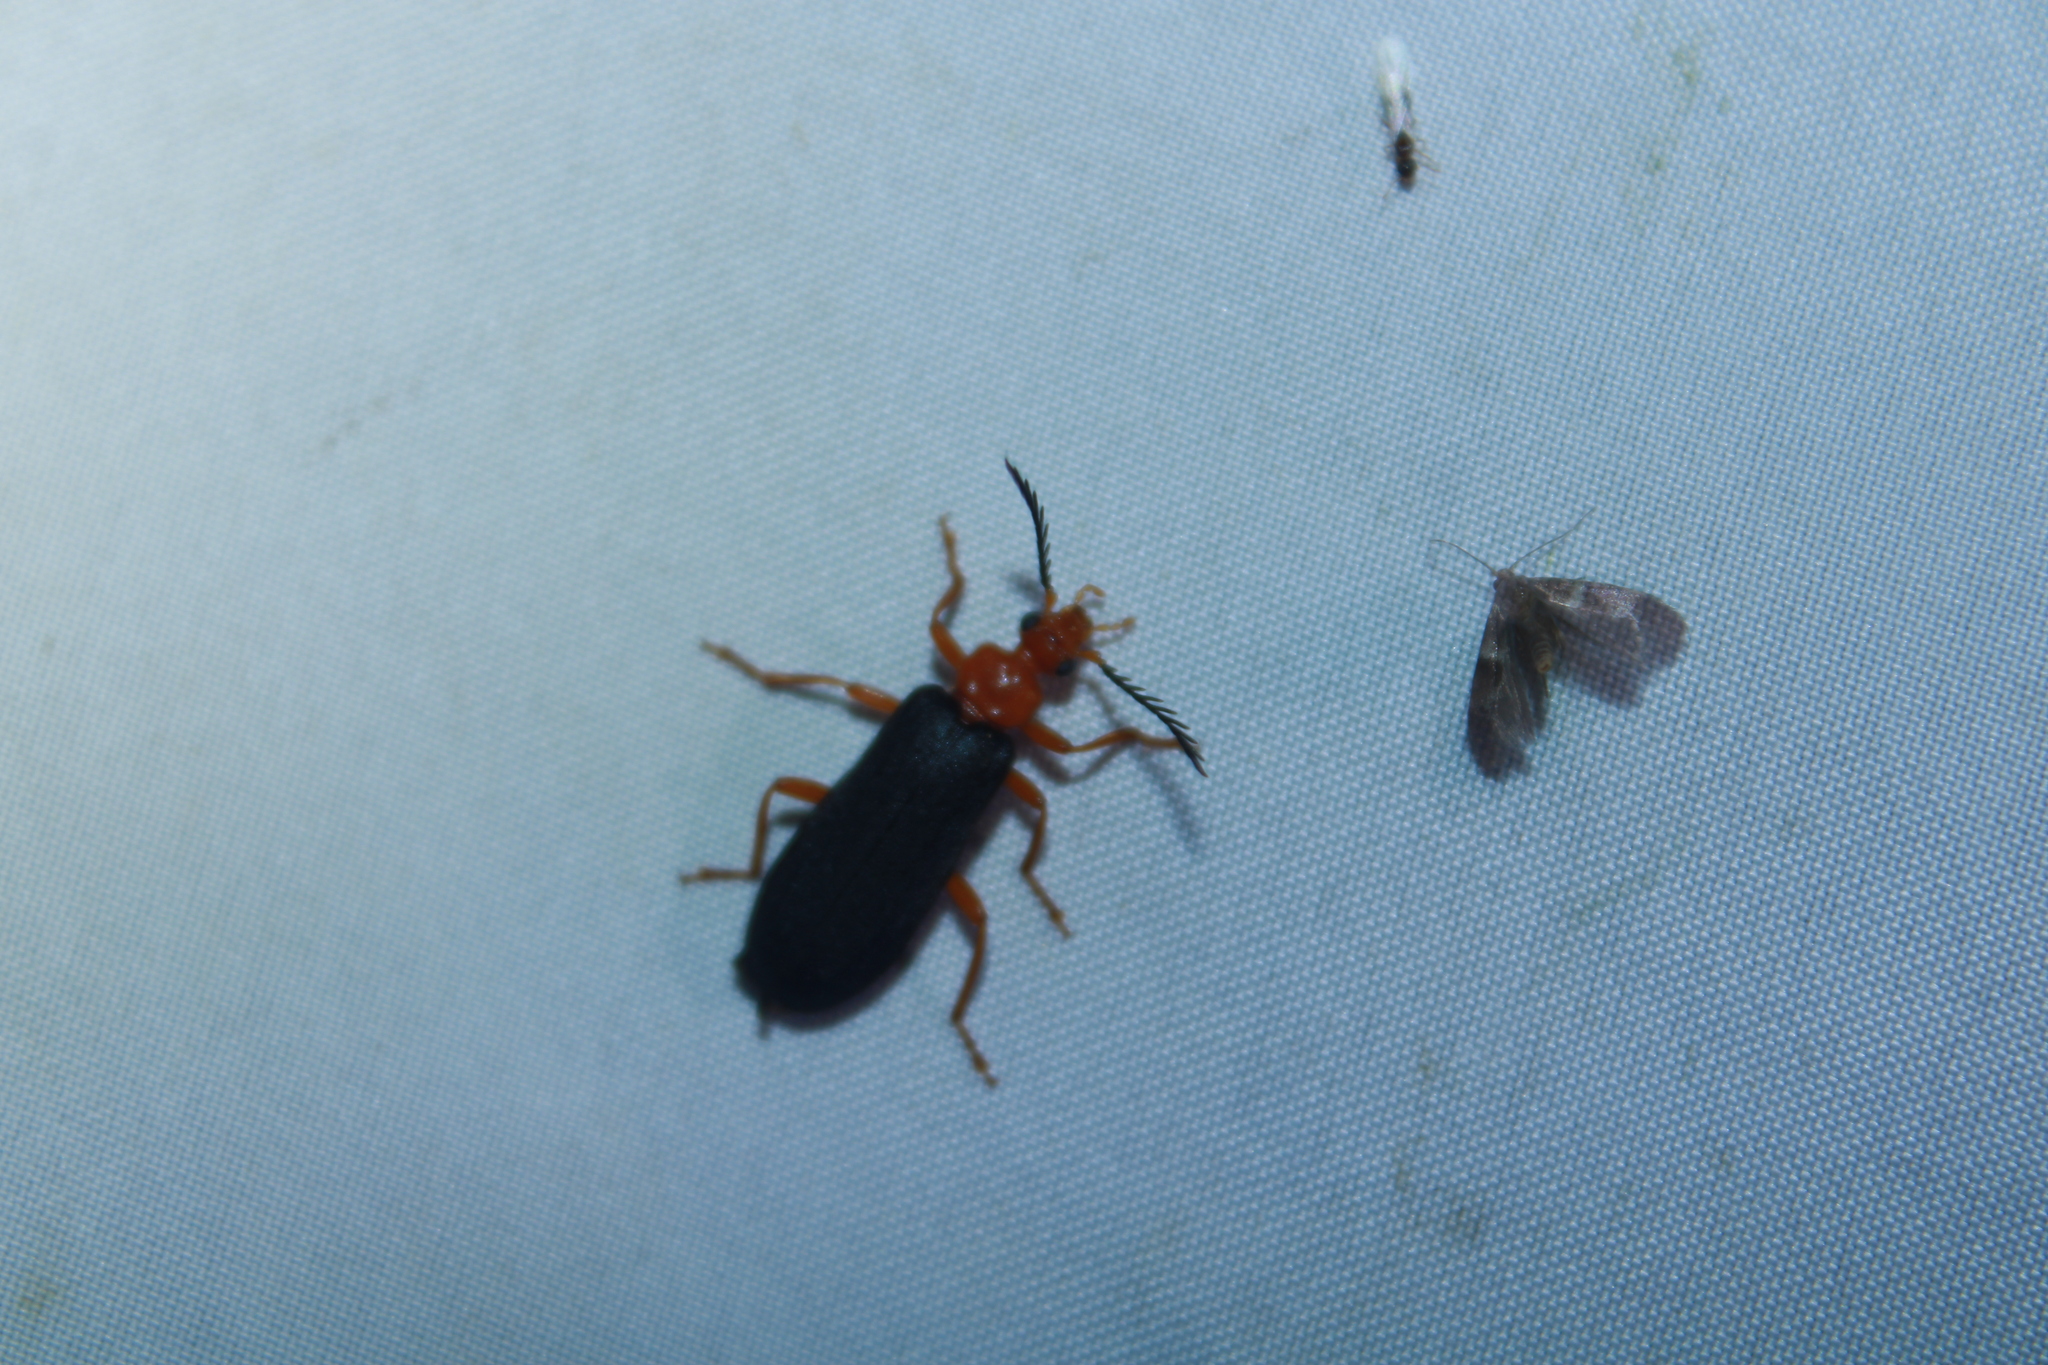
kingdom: Animalia
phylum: Arthropoda
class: Insecta
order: Coleoptera
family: Pyrochroidae
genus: Neopyrochroa
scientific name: Neopyrochroa flabellata
